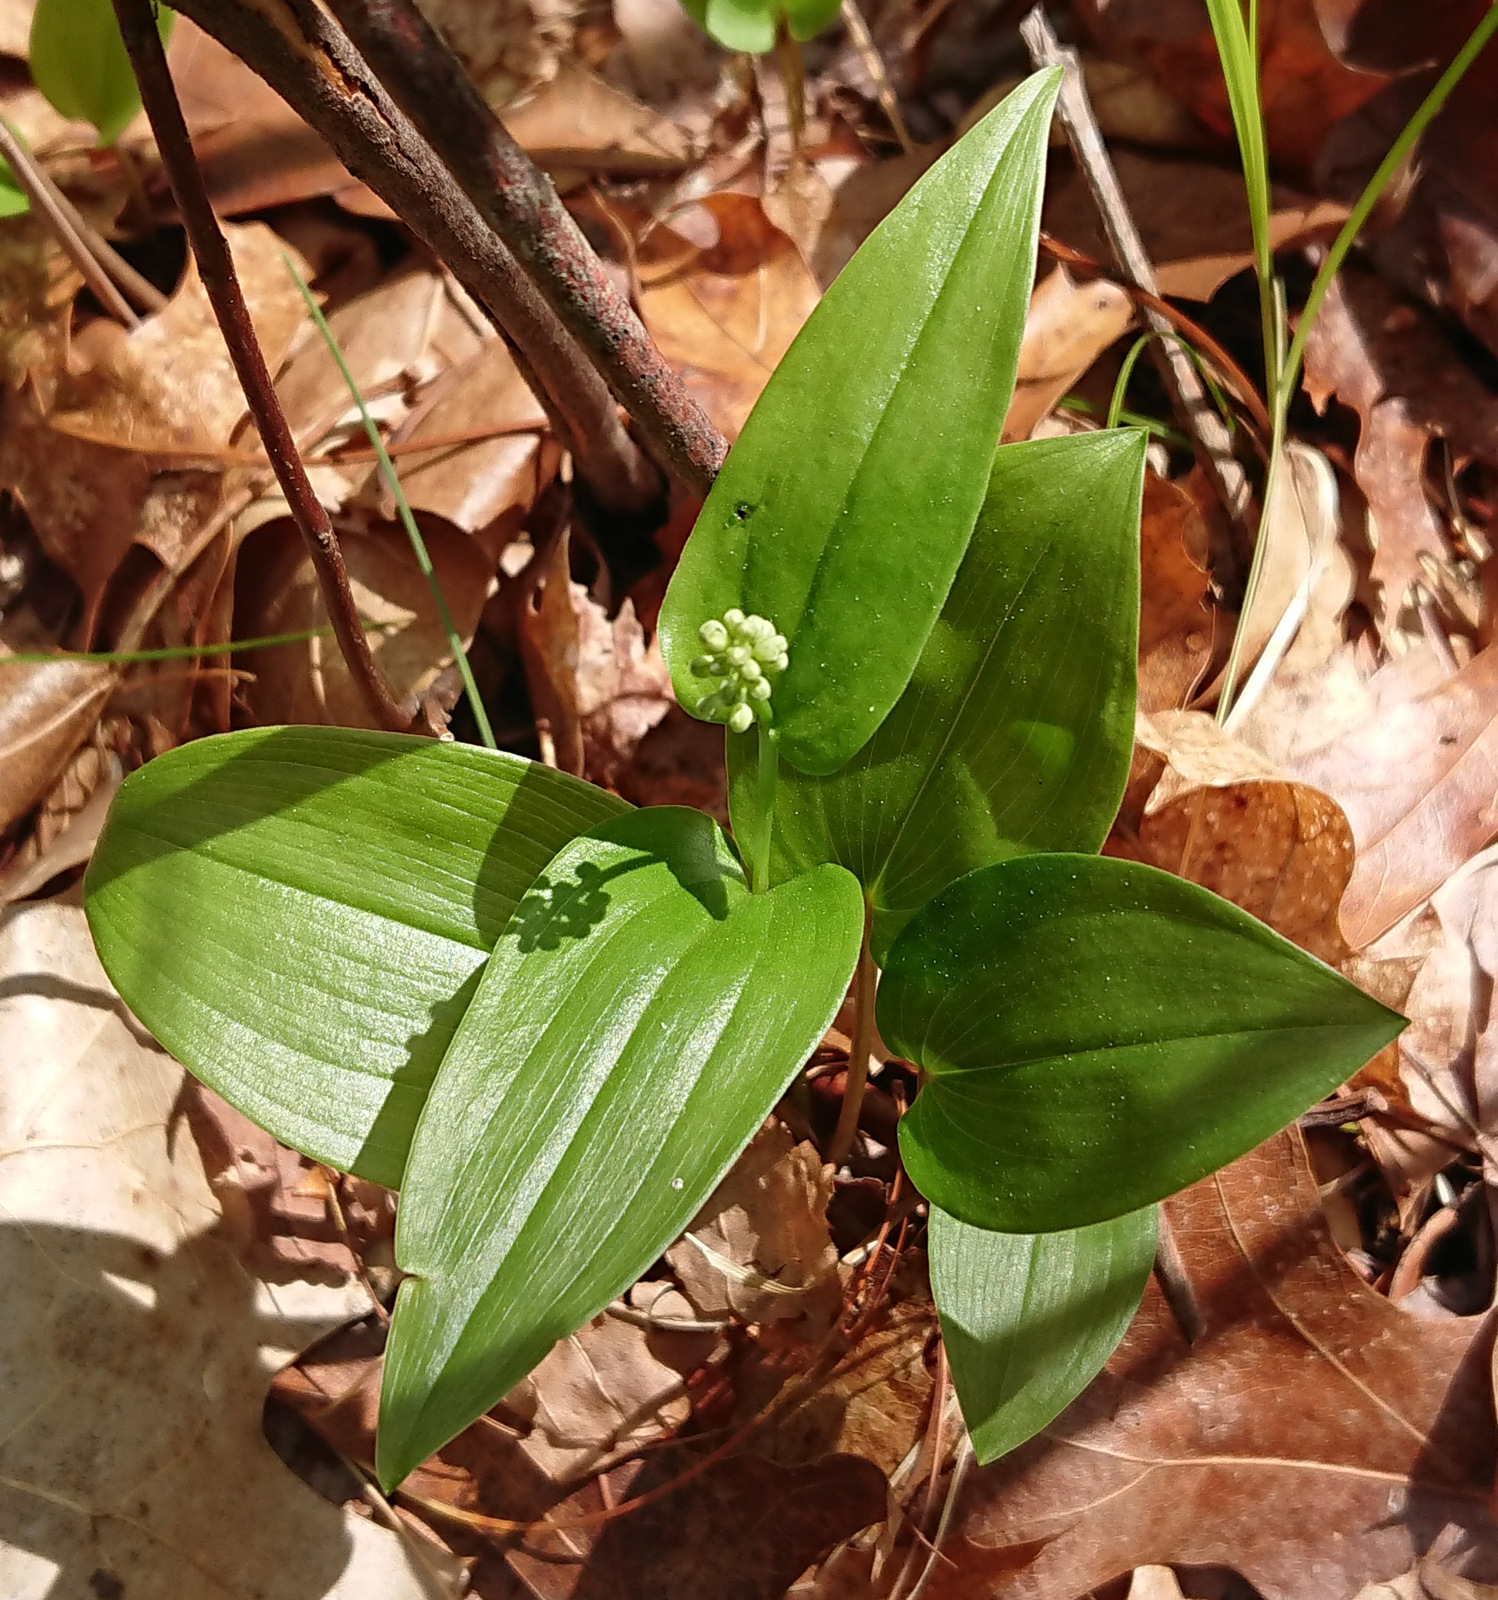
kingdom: Plantae
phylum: Tracheophyta
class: Liliopsida
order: Asparagales
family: Asparagaceae
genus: Maianthemum
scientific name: Maianthemum canadense
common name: False lily-of-the-valley
